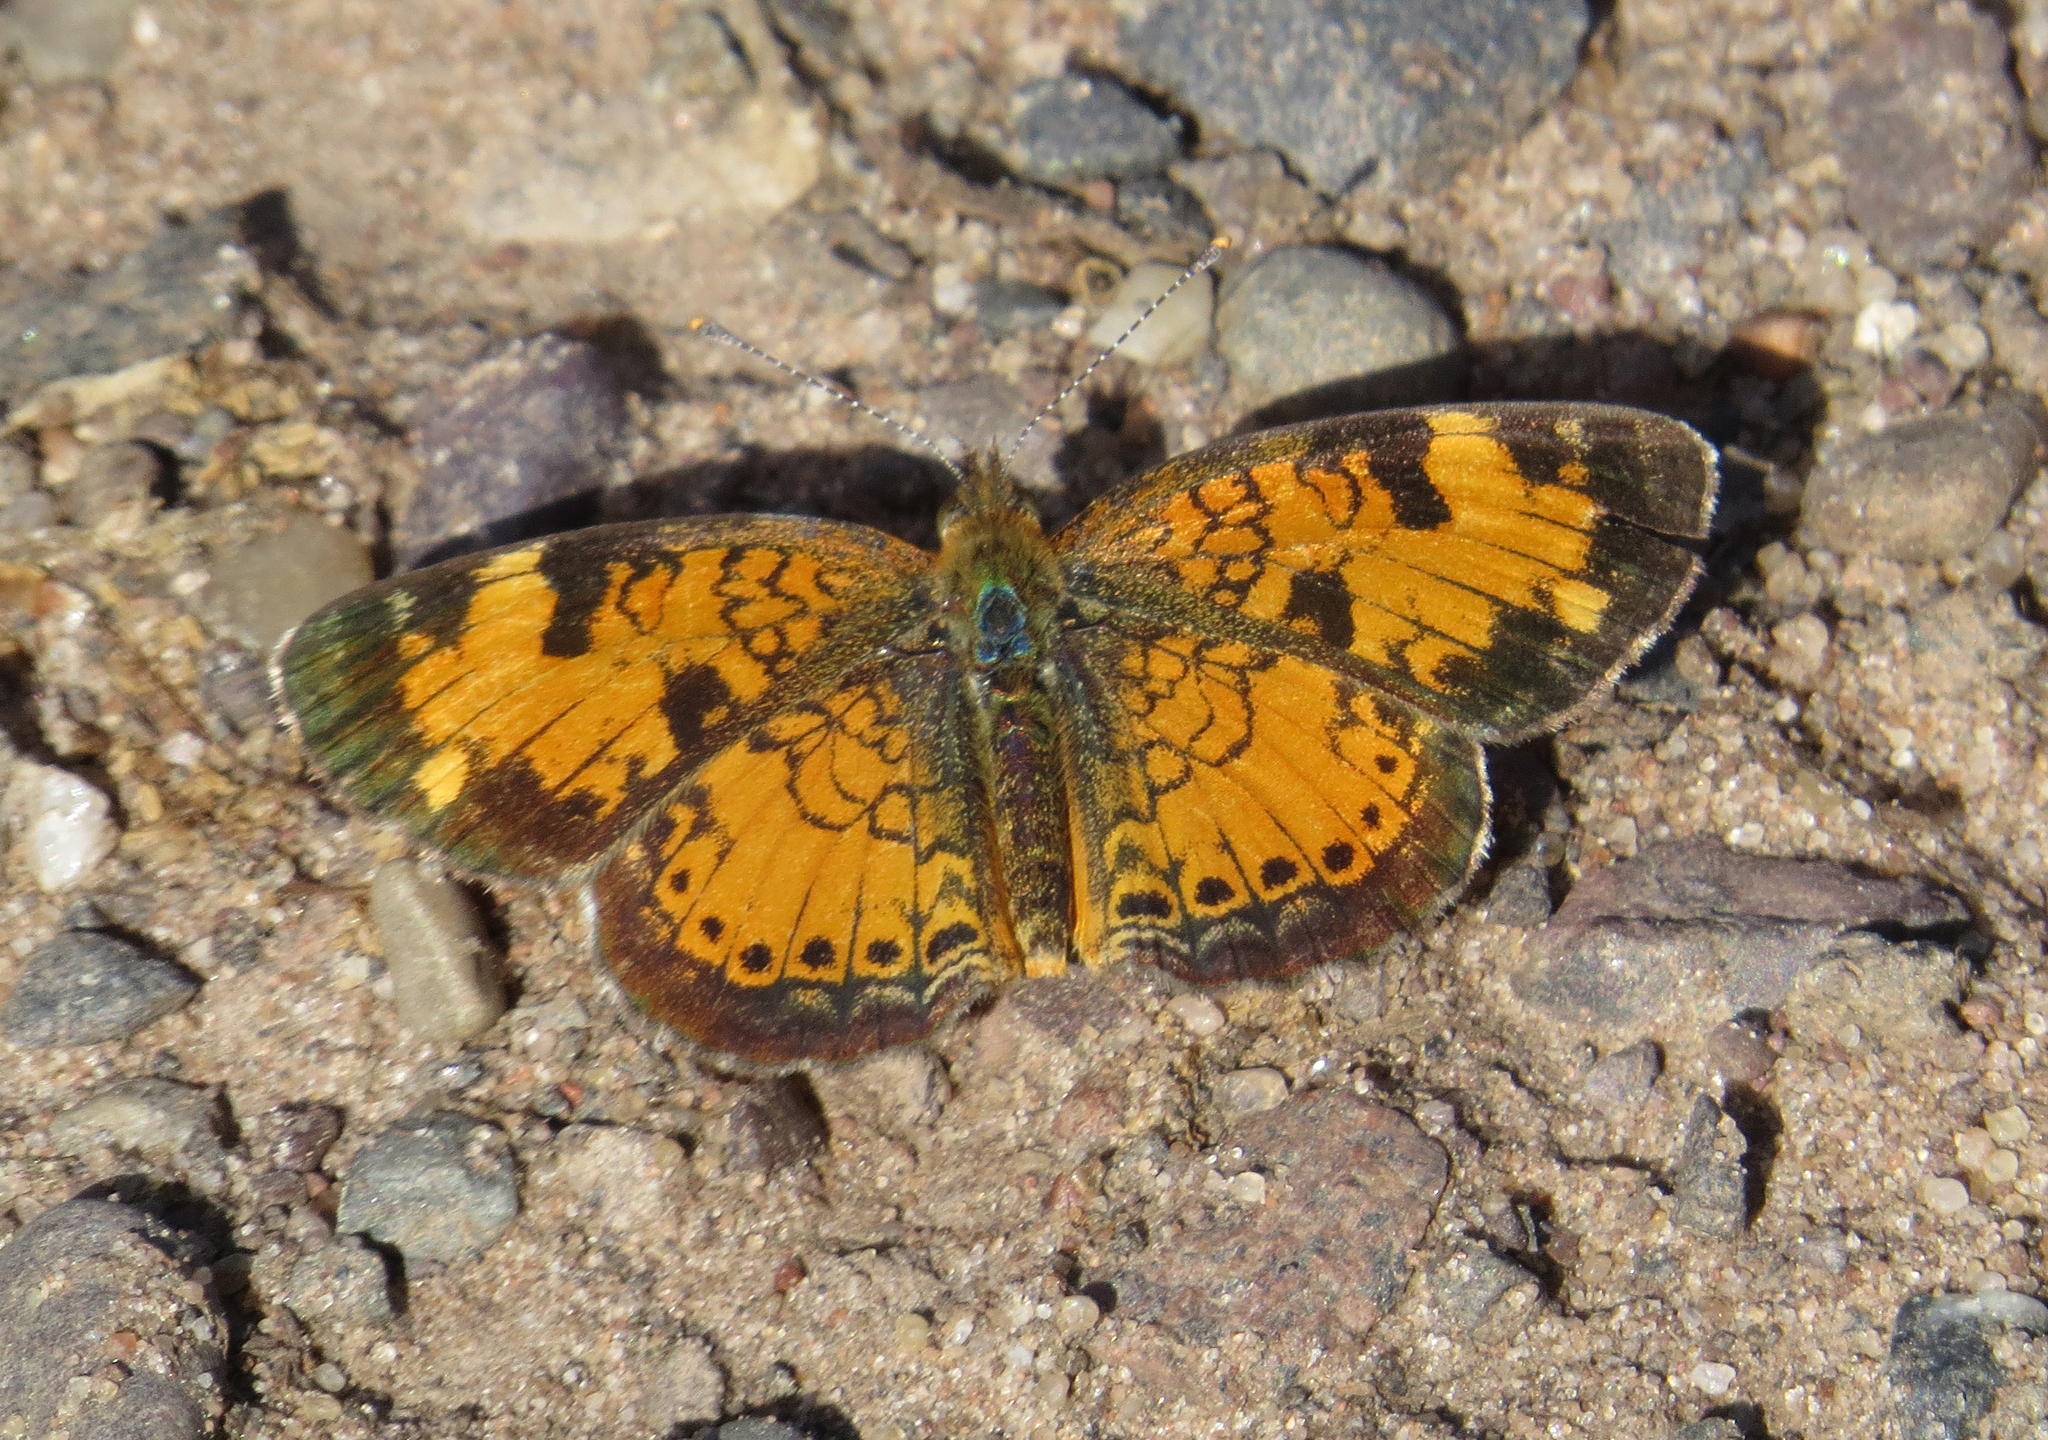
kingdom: Animalia
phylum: Arthropoda
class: Insecta
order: Lepidoptera
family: Nymphalidae
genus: Phyciodes
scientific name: Phyciodes tharos
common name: Pearl crescent
